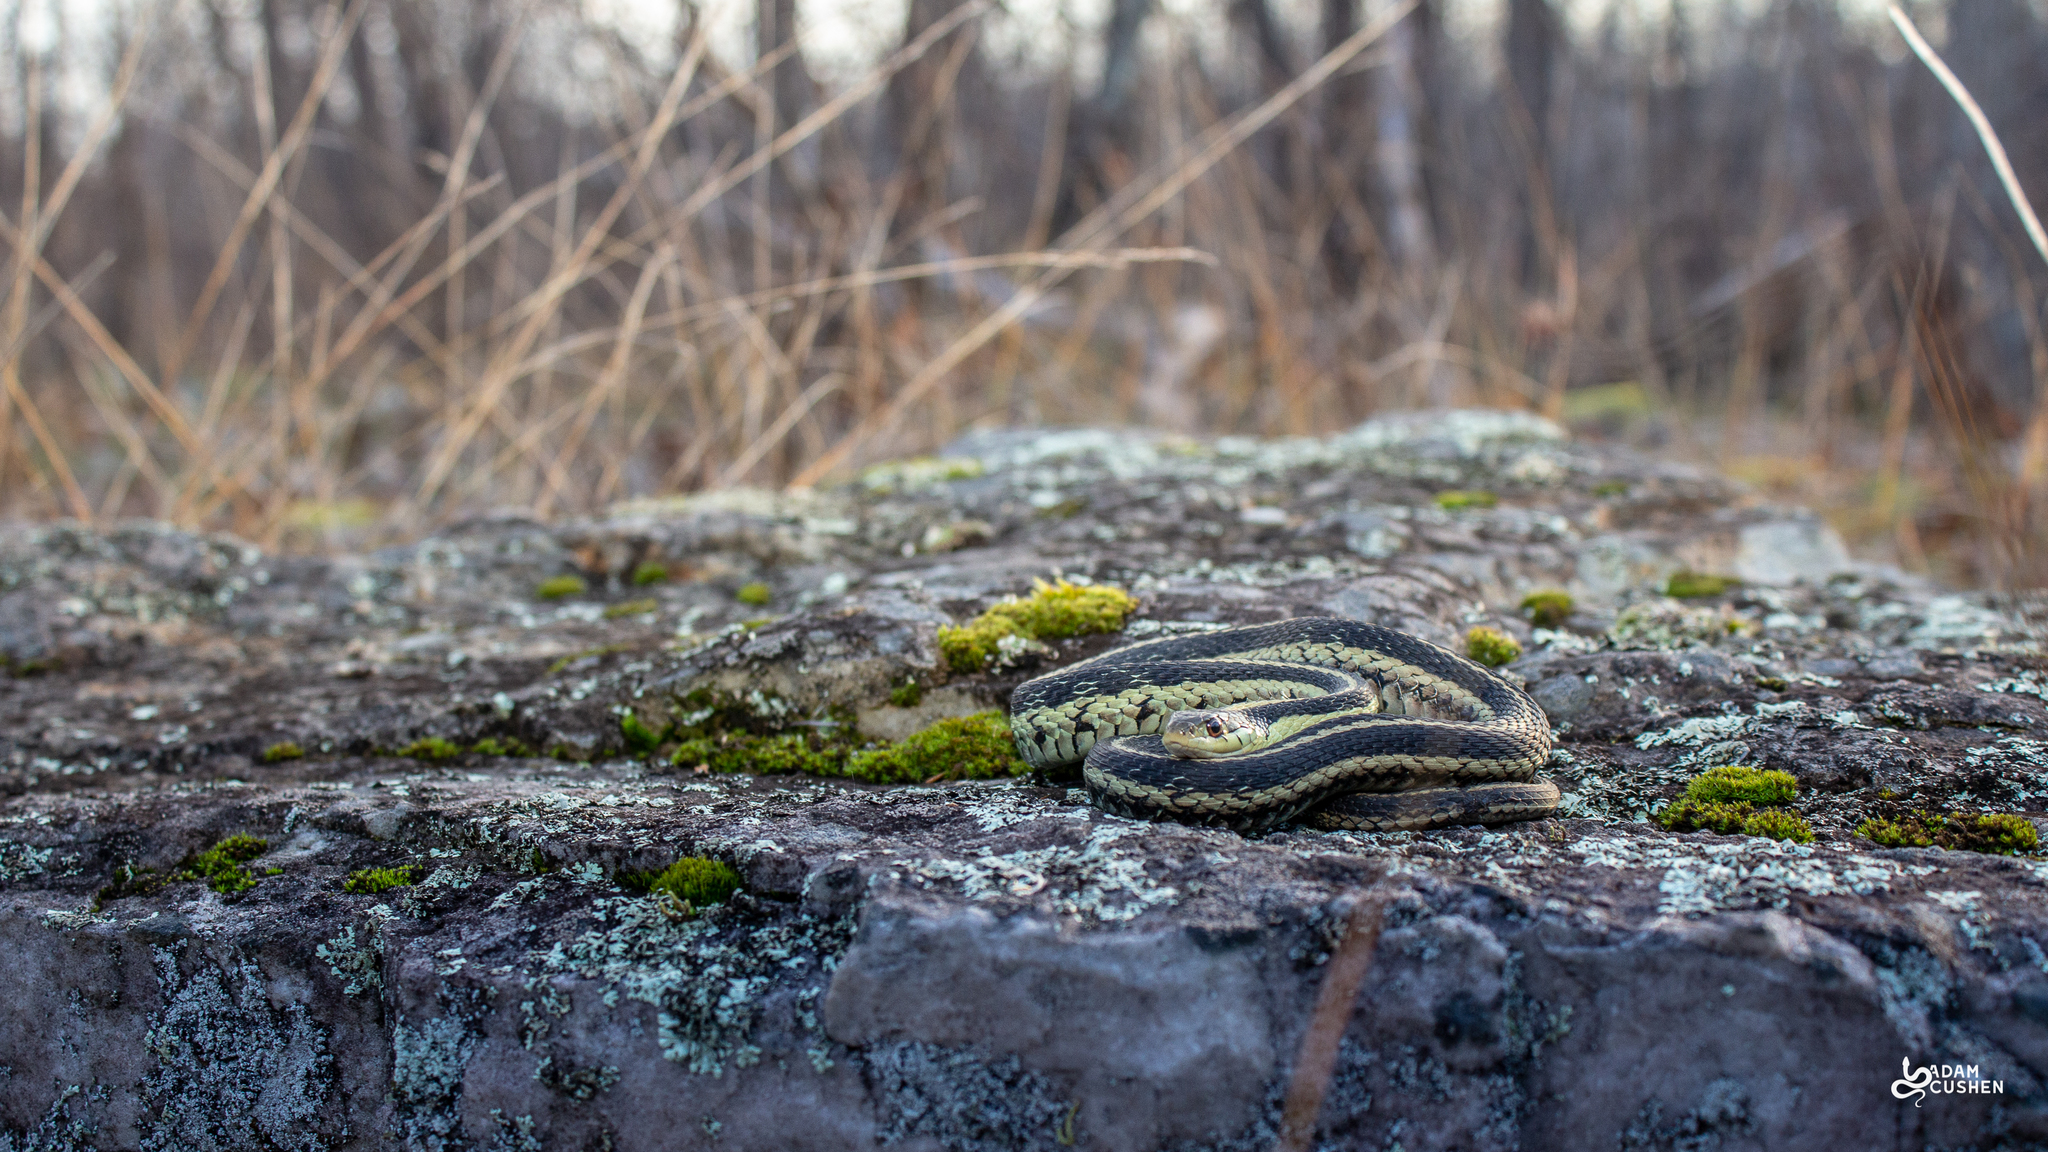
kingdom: Animalia
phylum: Chordata
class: Squamata
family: Colubridae
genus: Thamnophis
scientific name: Thamnophis sirtalis
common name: Common garter snake
